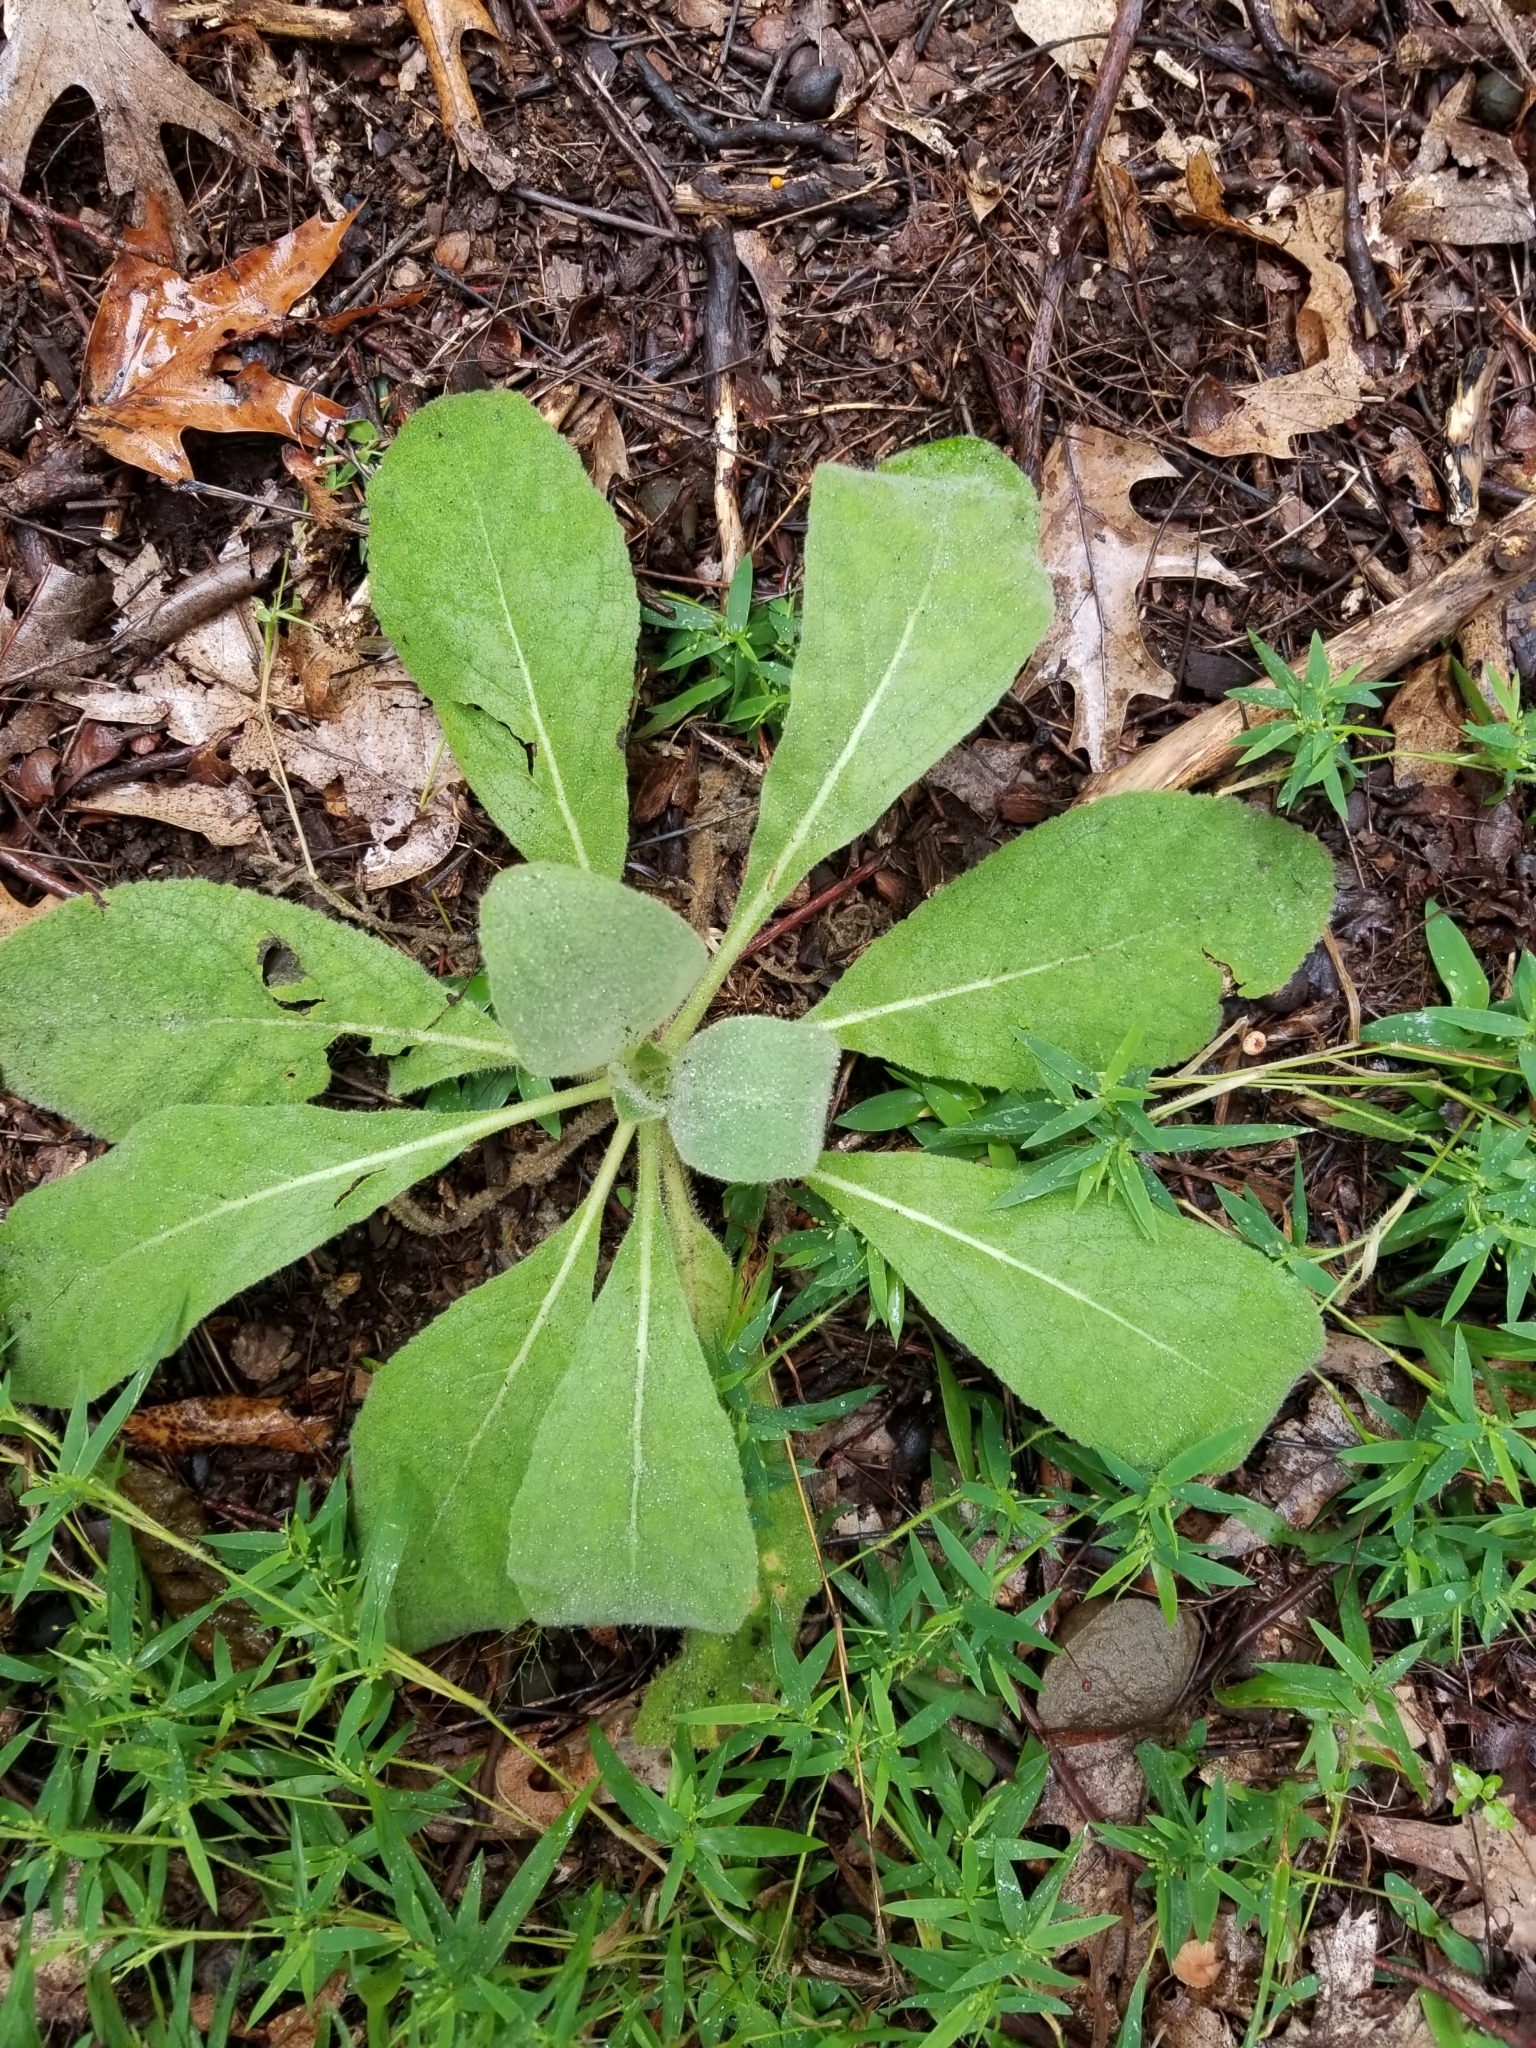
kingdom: Plantae
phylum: Tracheophyta
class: Magnoliopsida
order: Lamiales
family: Scrophulariaceae
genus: Verbascum
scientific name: Verbascum thapsus
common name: Common mullein
